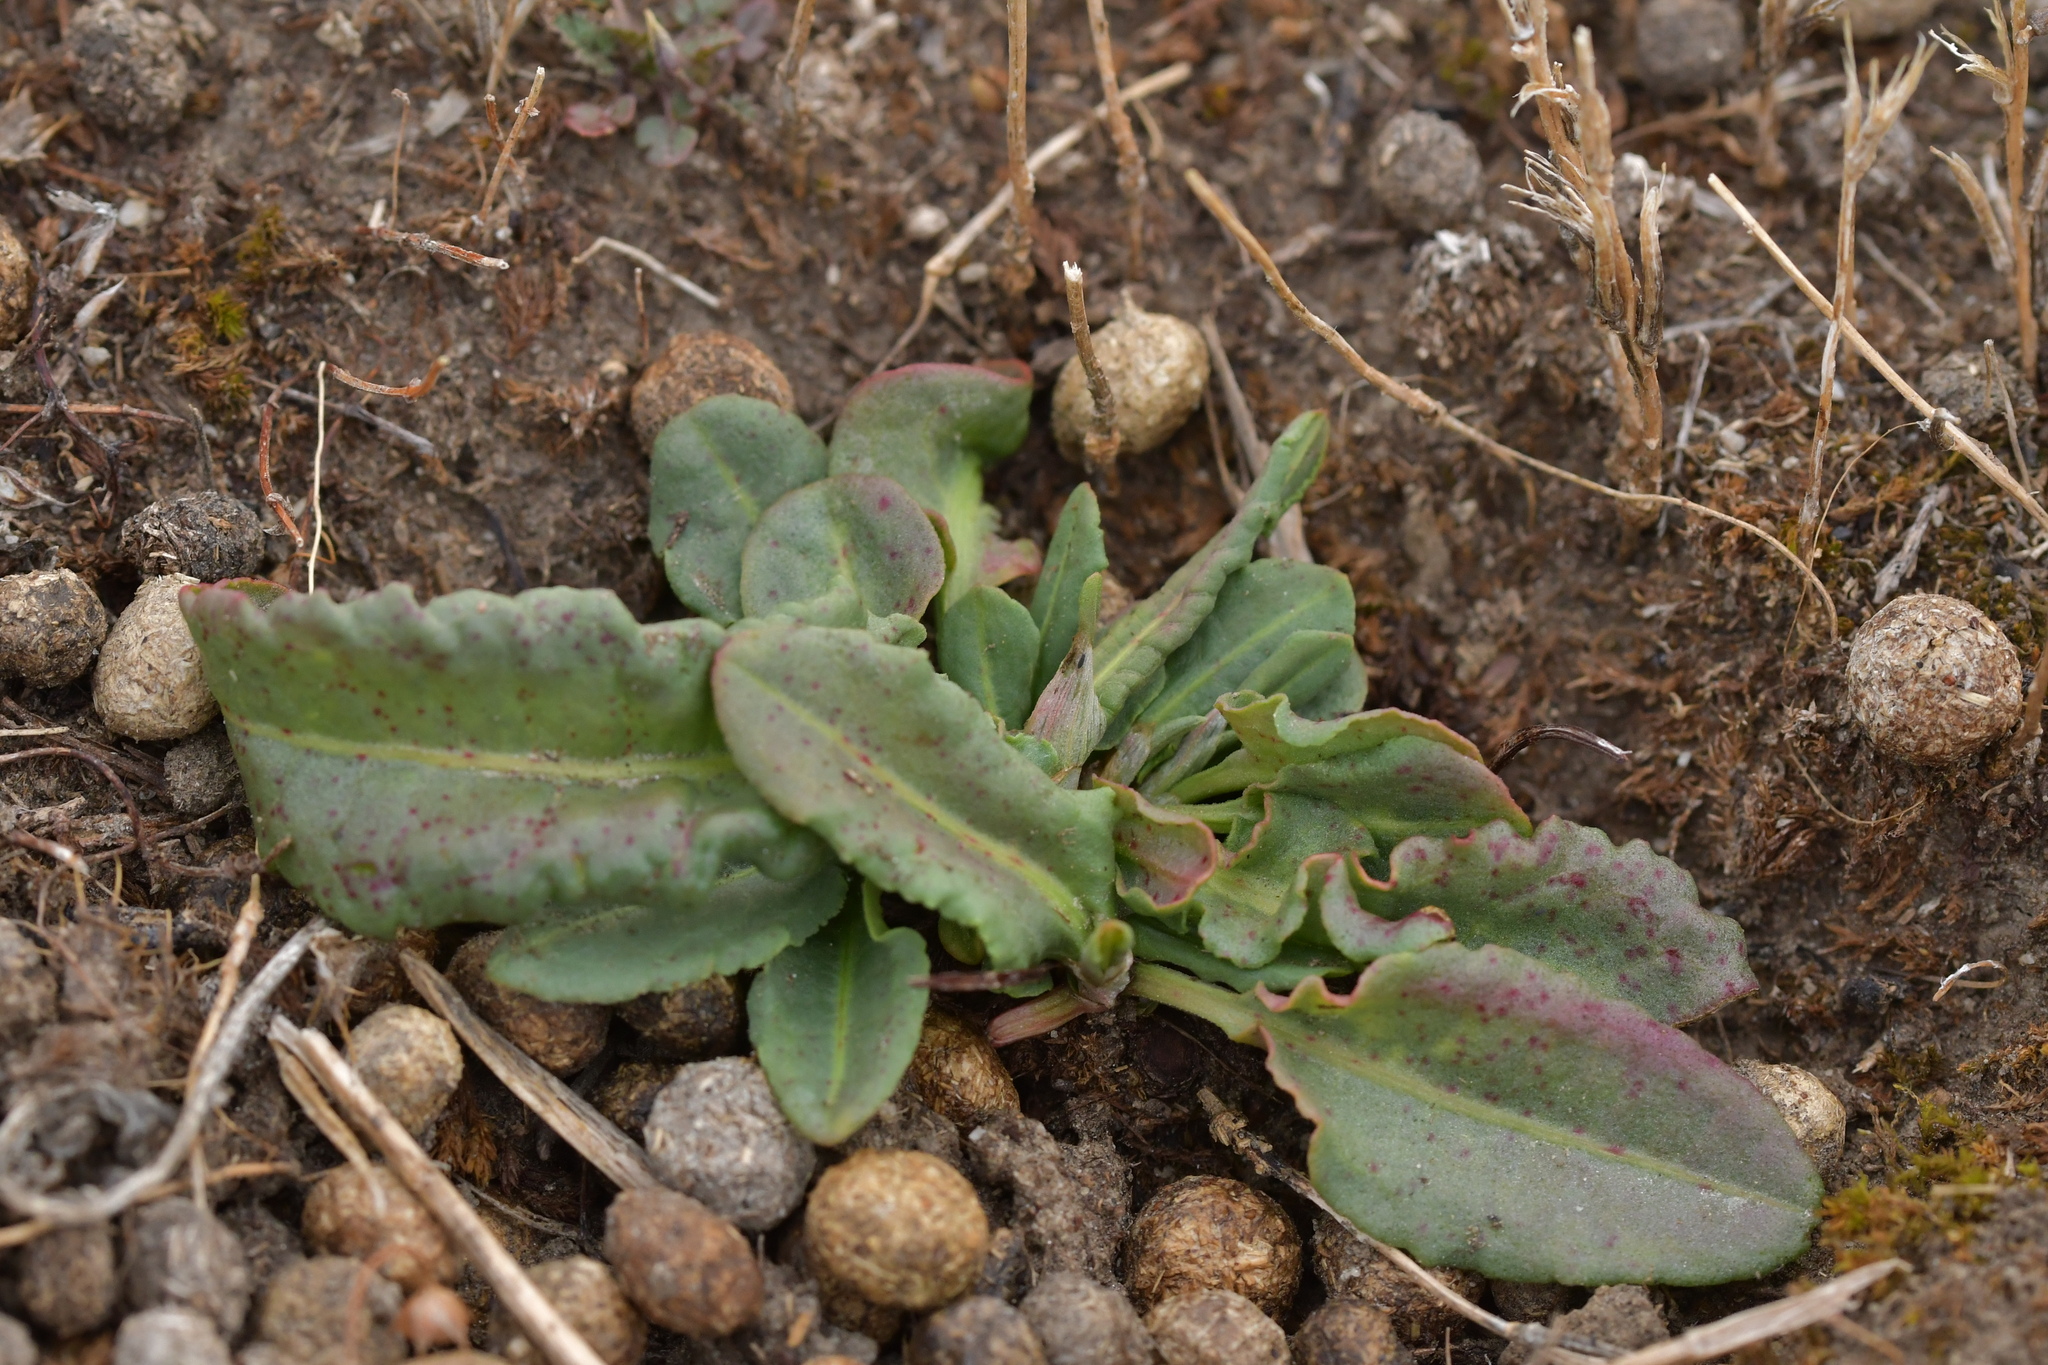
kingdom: Plantae
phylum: Tracheophyta
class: Magnoliopsida
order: Caryophyllales
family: Polygonaceae
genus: Rumex
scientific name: Rumex acetosella
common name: Common sheep sorrel
